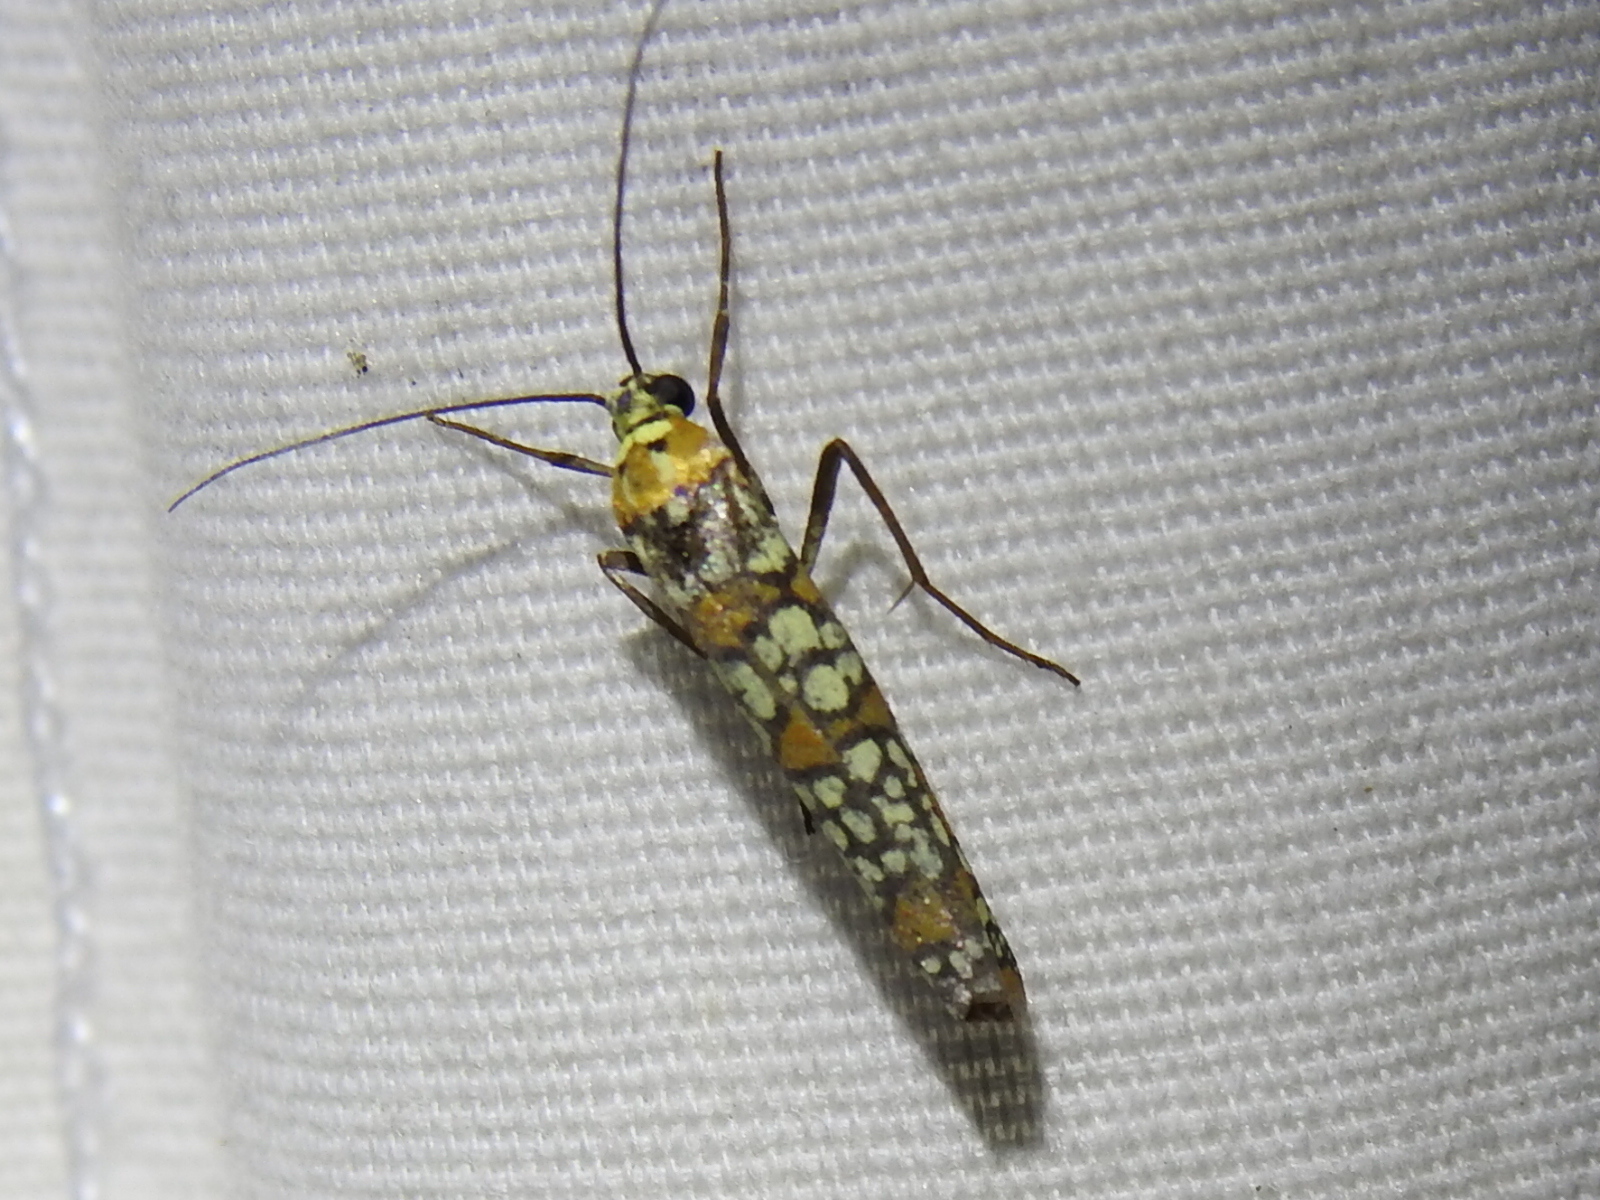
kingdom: Animalia
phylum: Arthropoda
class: Insecta
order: Lepidoptera
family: Attevidae
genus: Atteva
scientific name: Atteva punctella
